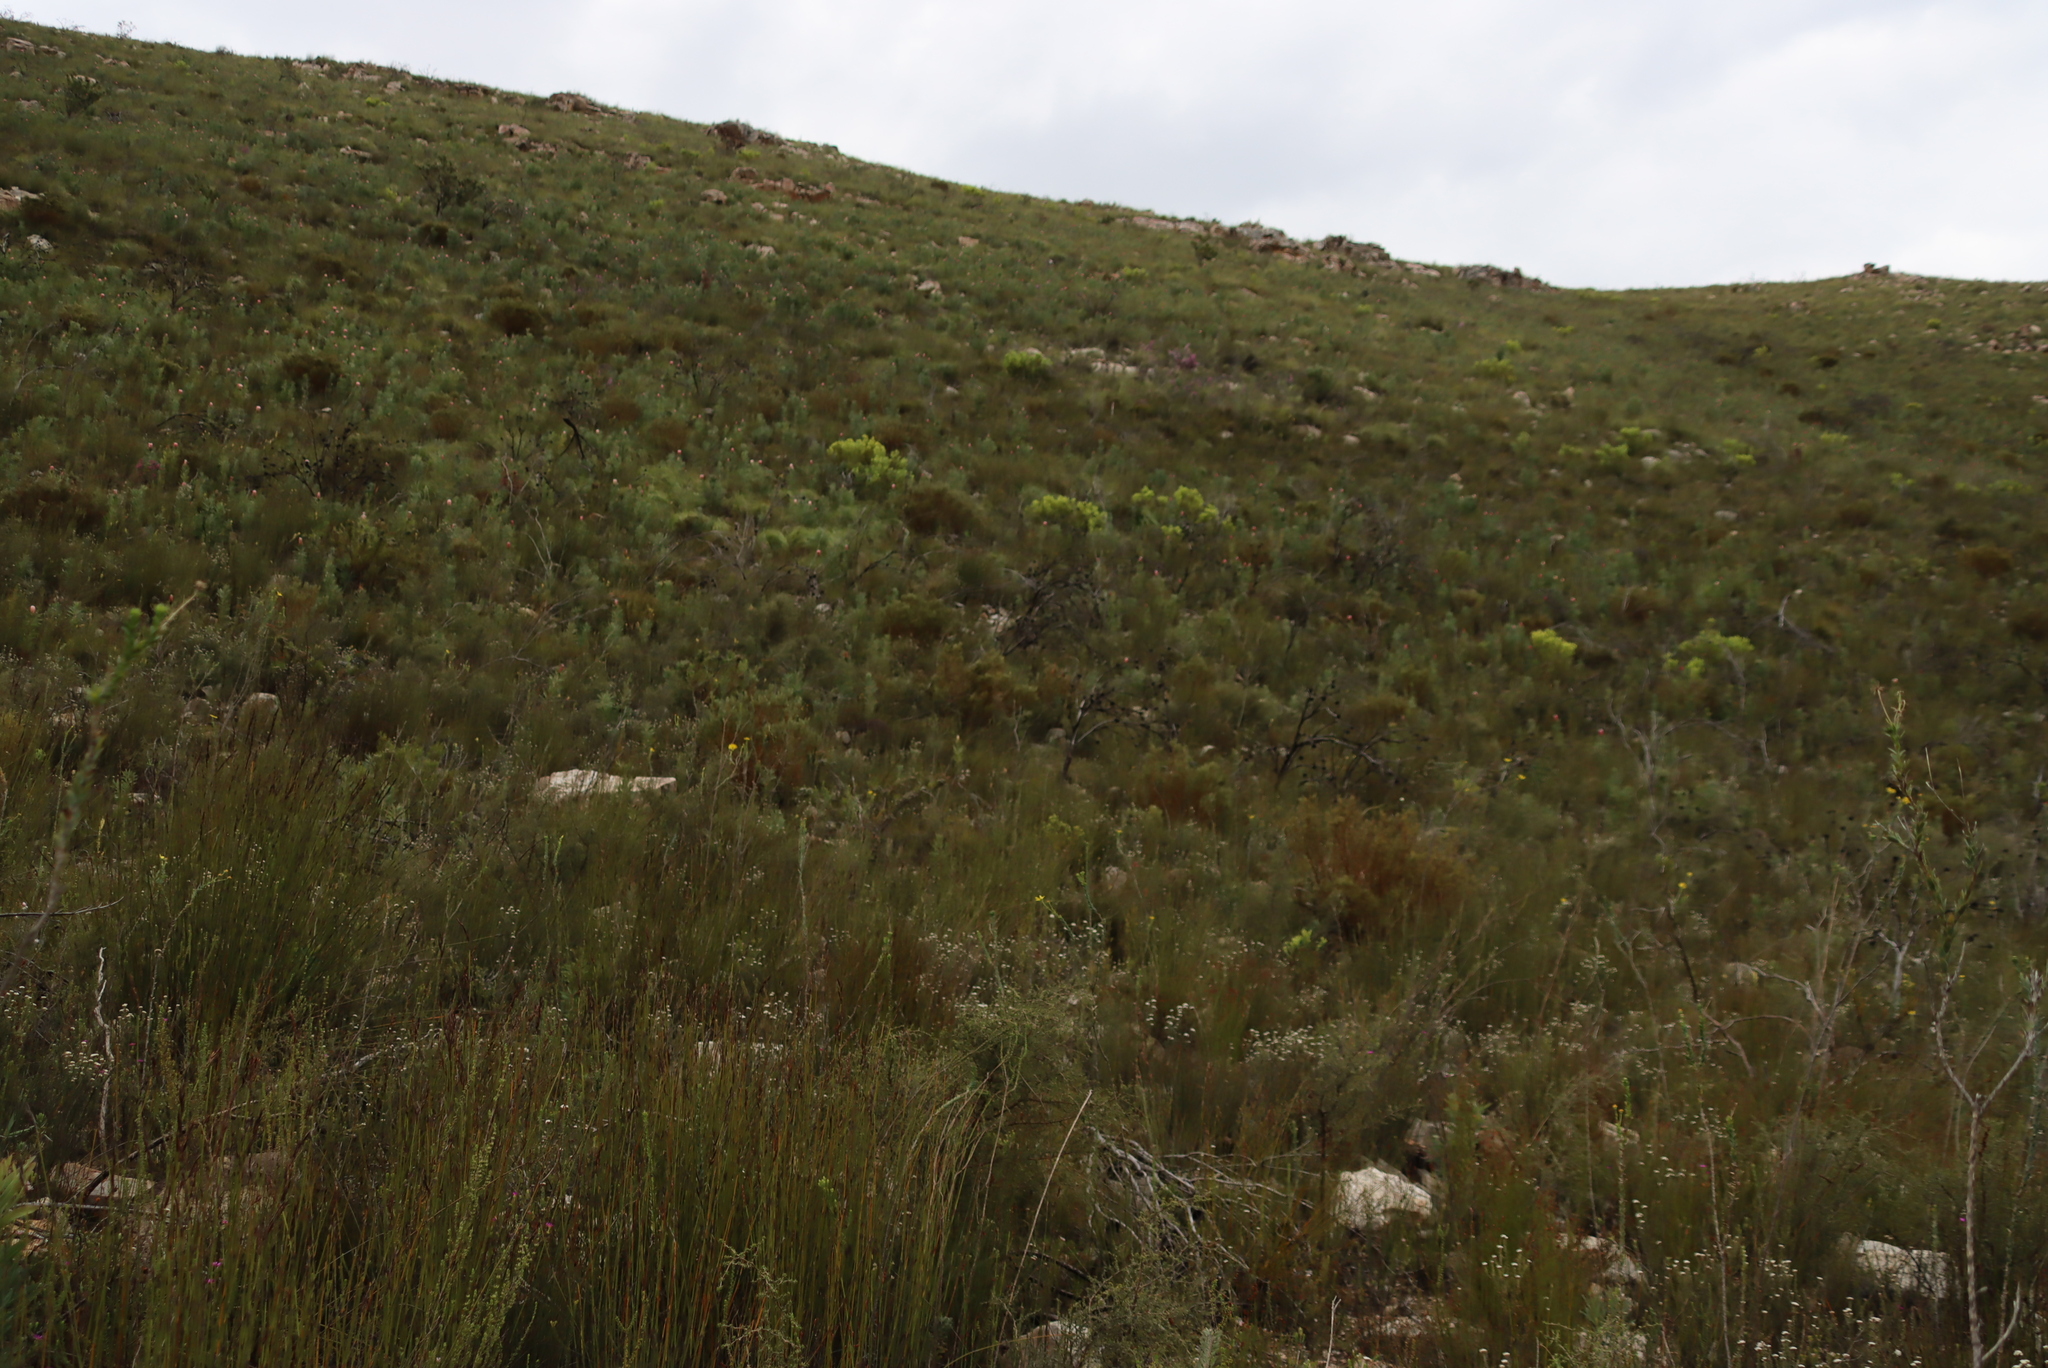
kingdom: Plantae
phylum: Tracheophyta
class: Magnoliopsida
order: Fabales
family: Fabaceae
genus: Cyclopia
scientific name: Cyclopia intermedia
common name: Mountain tea
